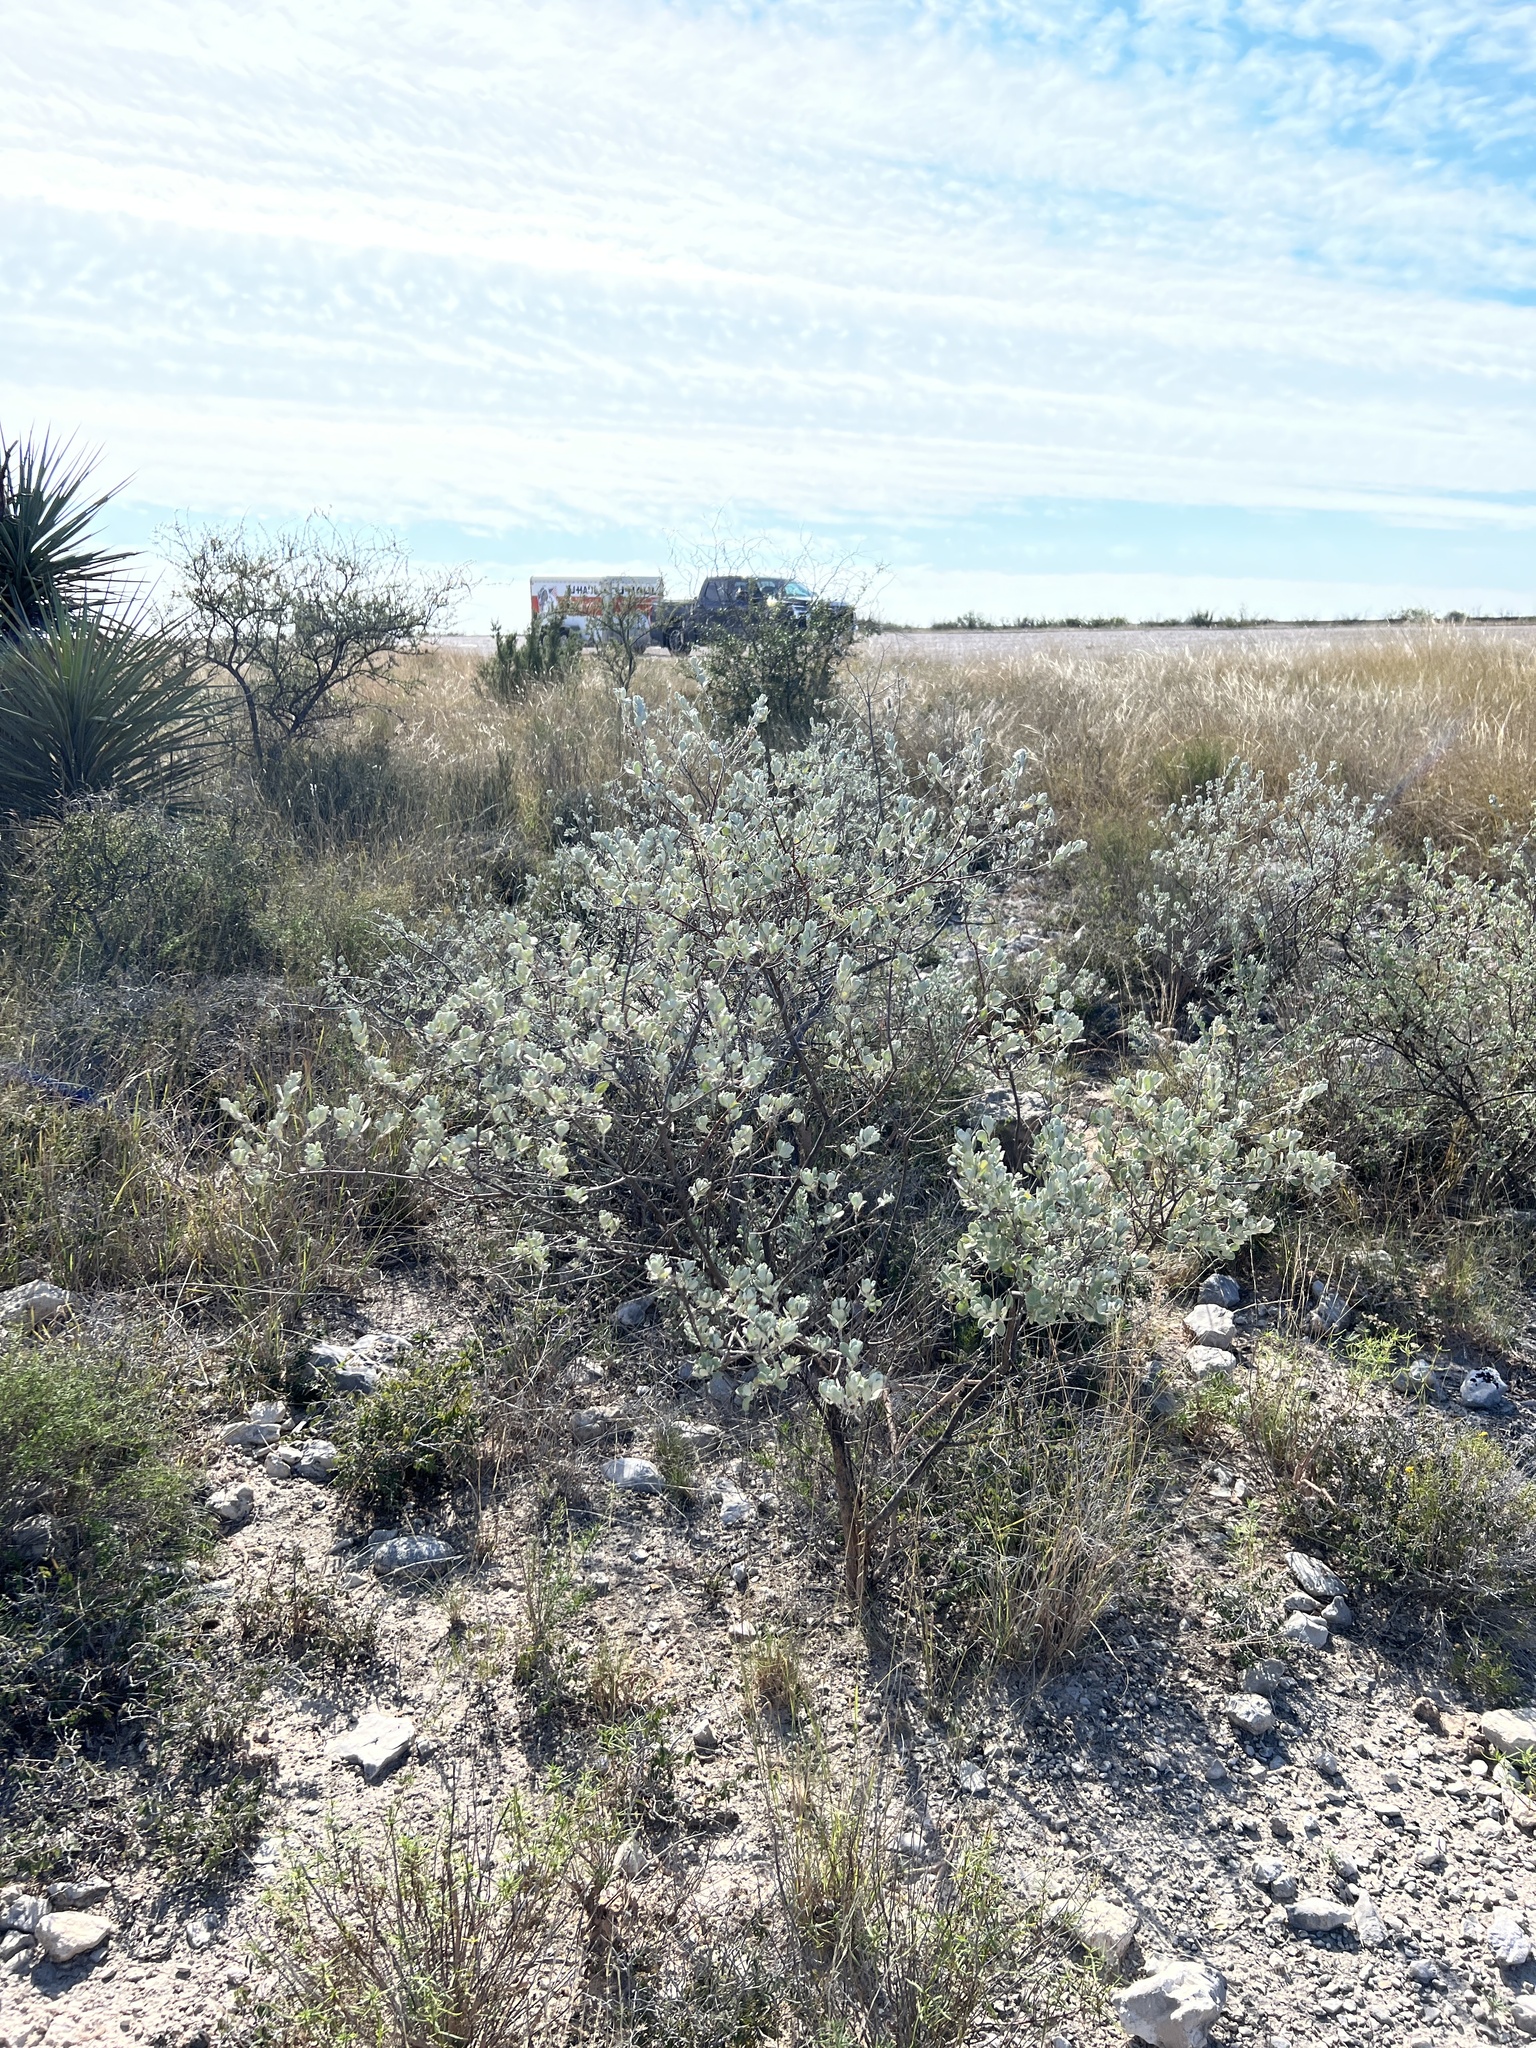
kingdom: Plantae
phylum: Tracheophyta
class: Magnoliopsida
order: Lamiales
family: Scrophulariaceae
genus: Leucophyllum
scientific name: Leucophyllum frutescens
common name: Texas silverleaf
